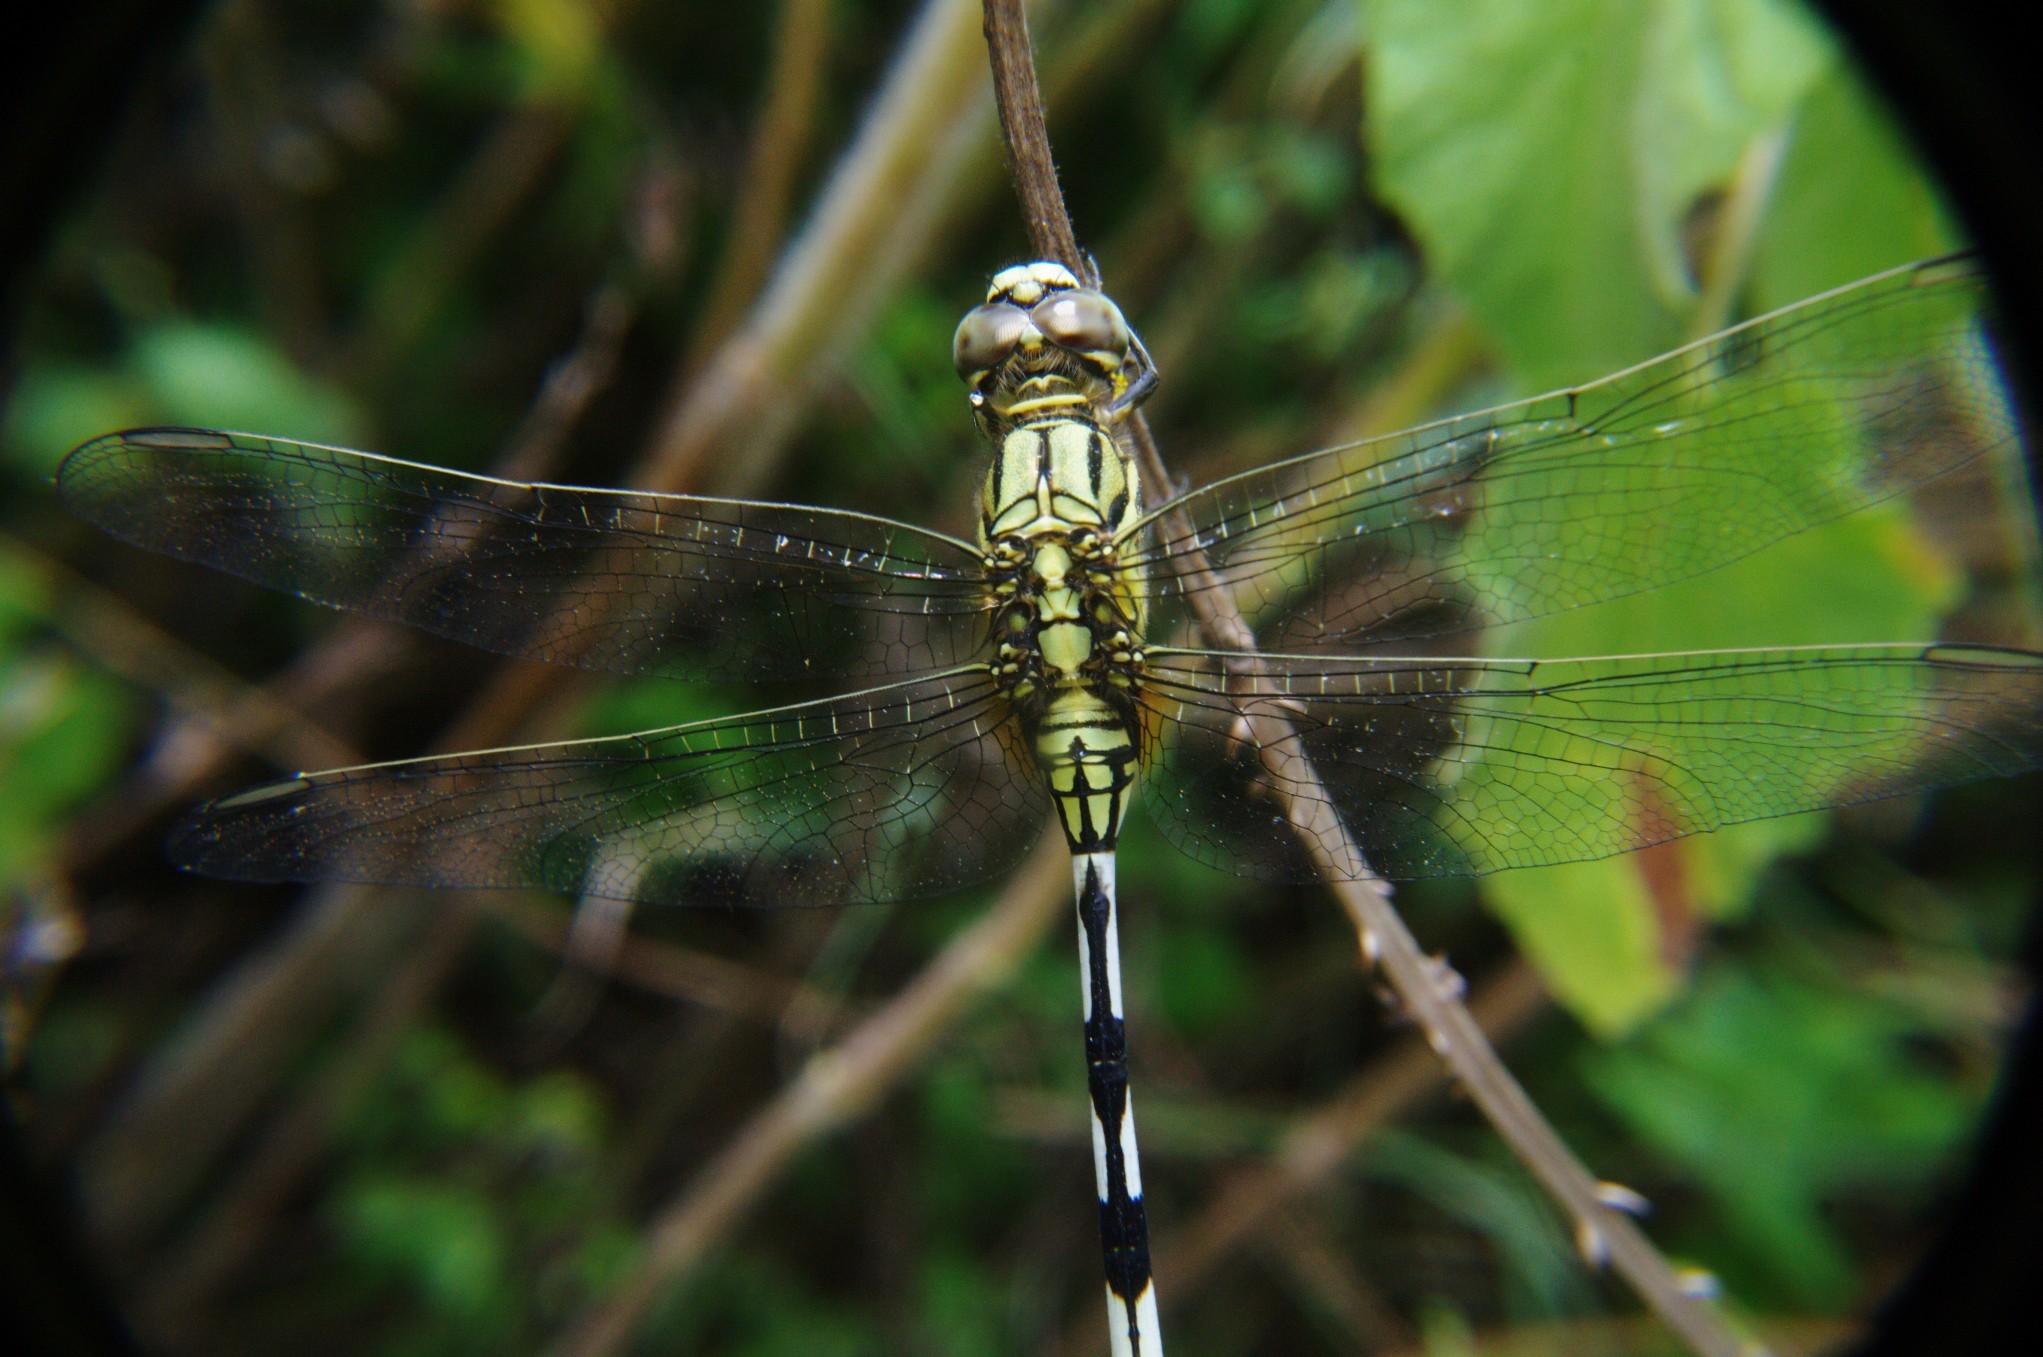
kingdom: Animalia
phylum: Arthropoda
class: Insecta
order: Odonata
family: Libellulidae
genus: Orthetrum
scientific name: Orthetrum sabina
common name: Slender skimmer
